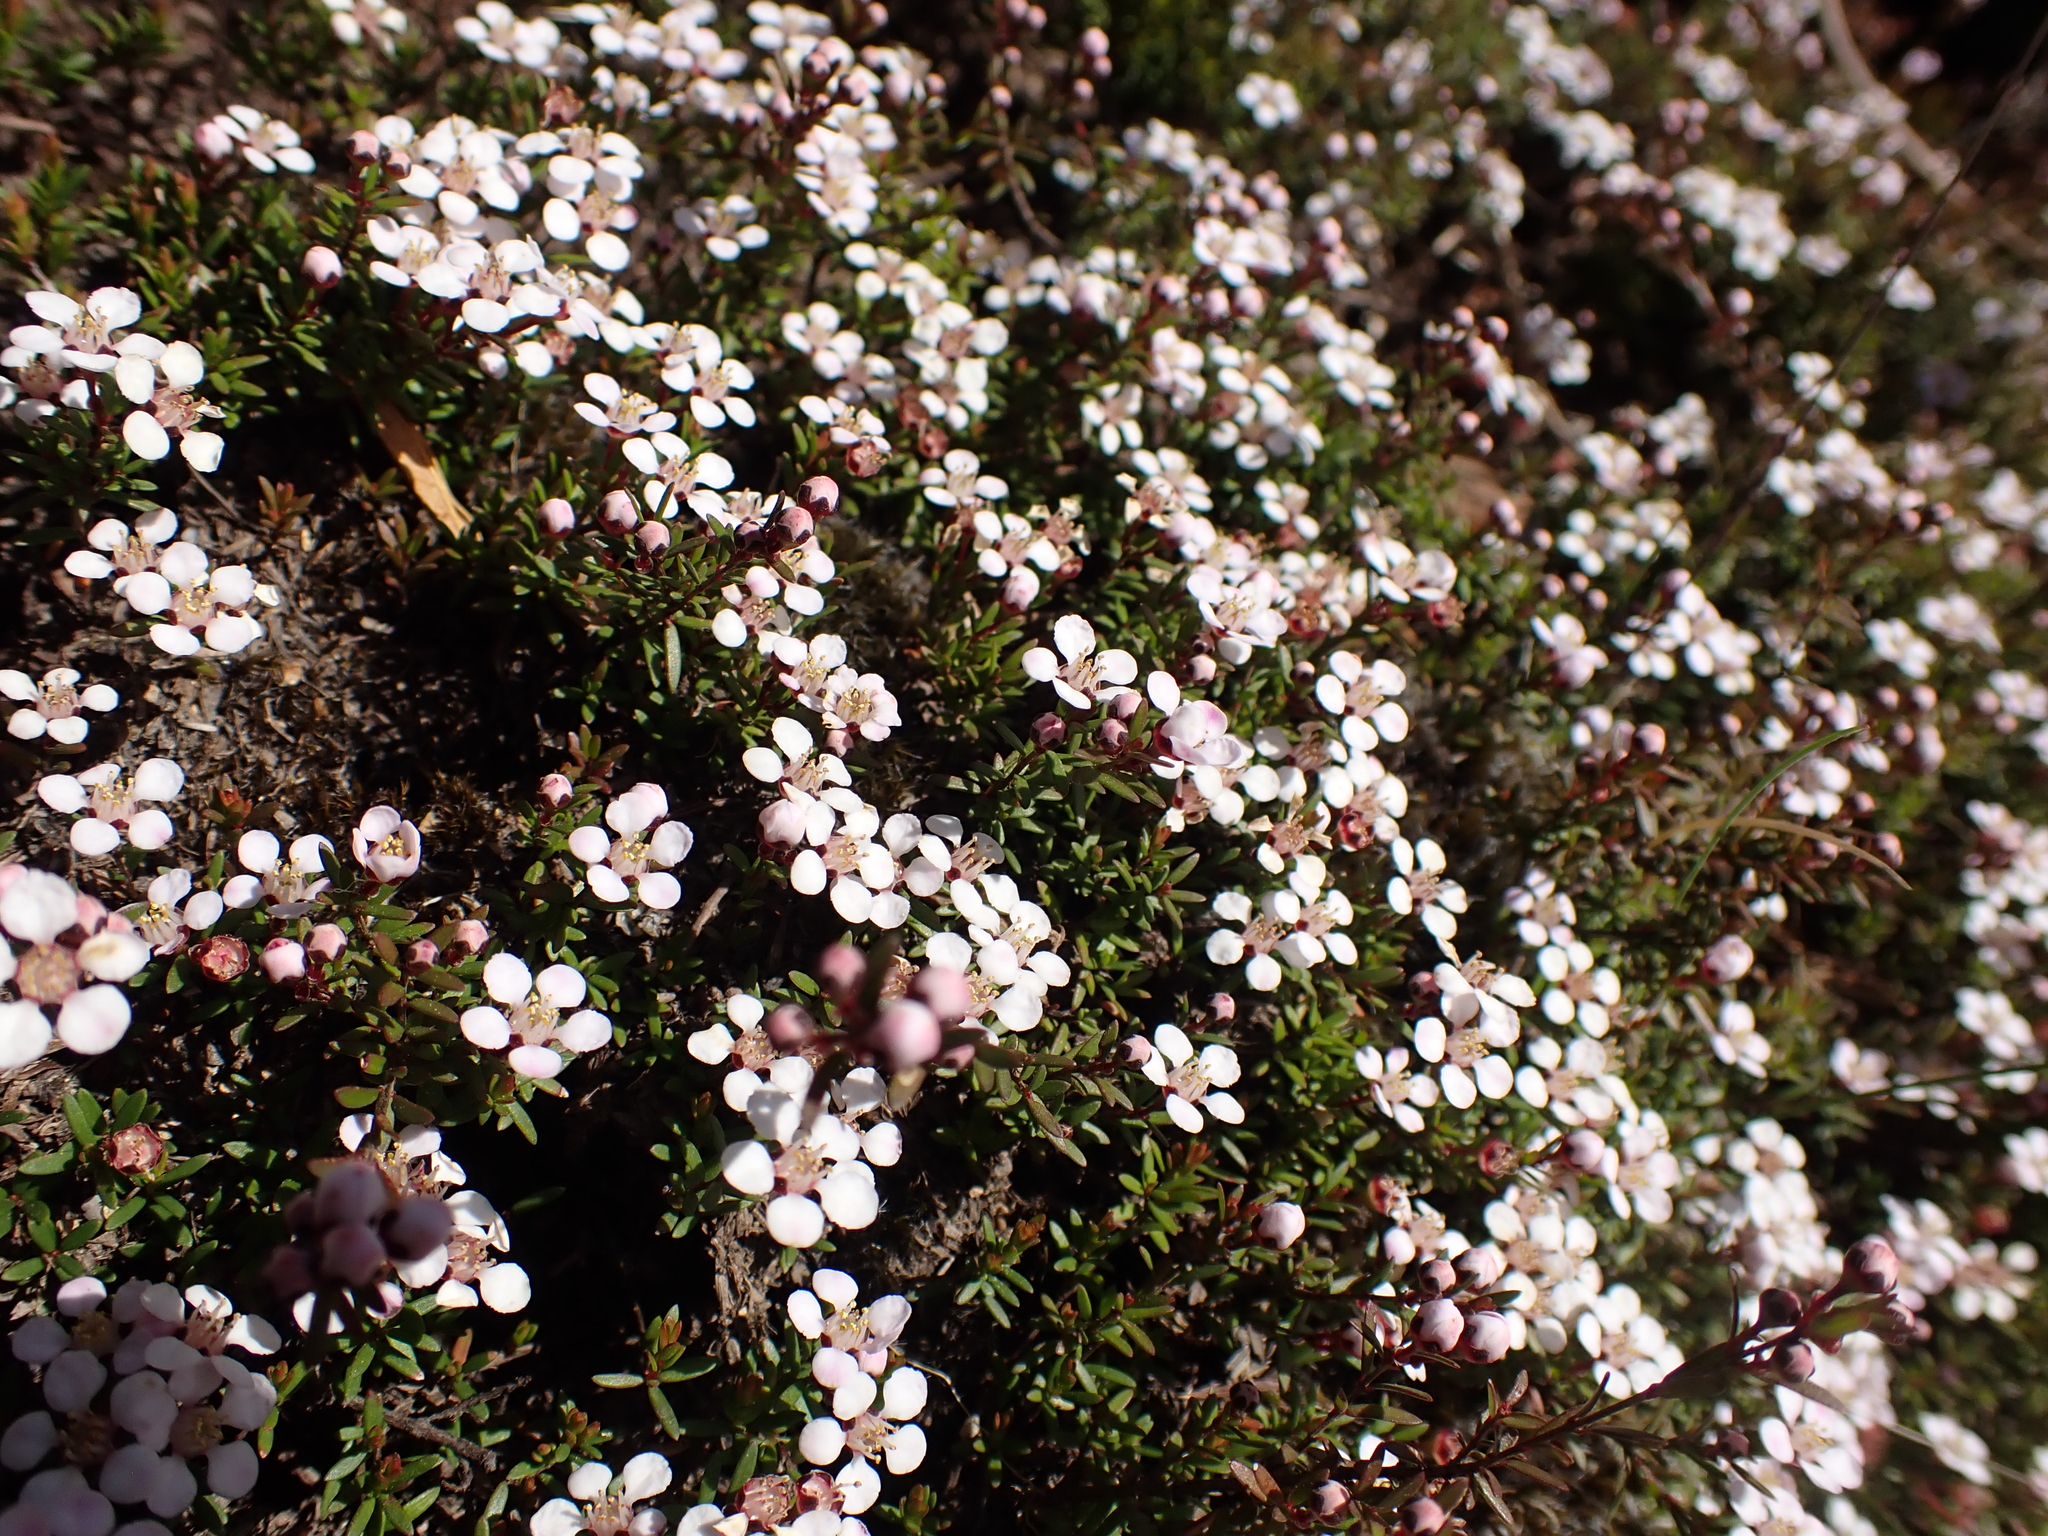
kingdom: Plantae
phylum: Tracheophyta
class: Magnoliopsida
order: Myrtales
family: Myrtaceae
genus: Euryomyrtus
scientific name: Euryomyrtus ramosissima
